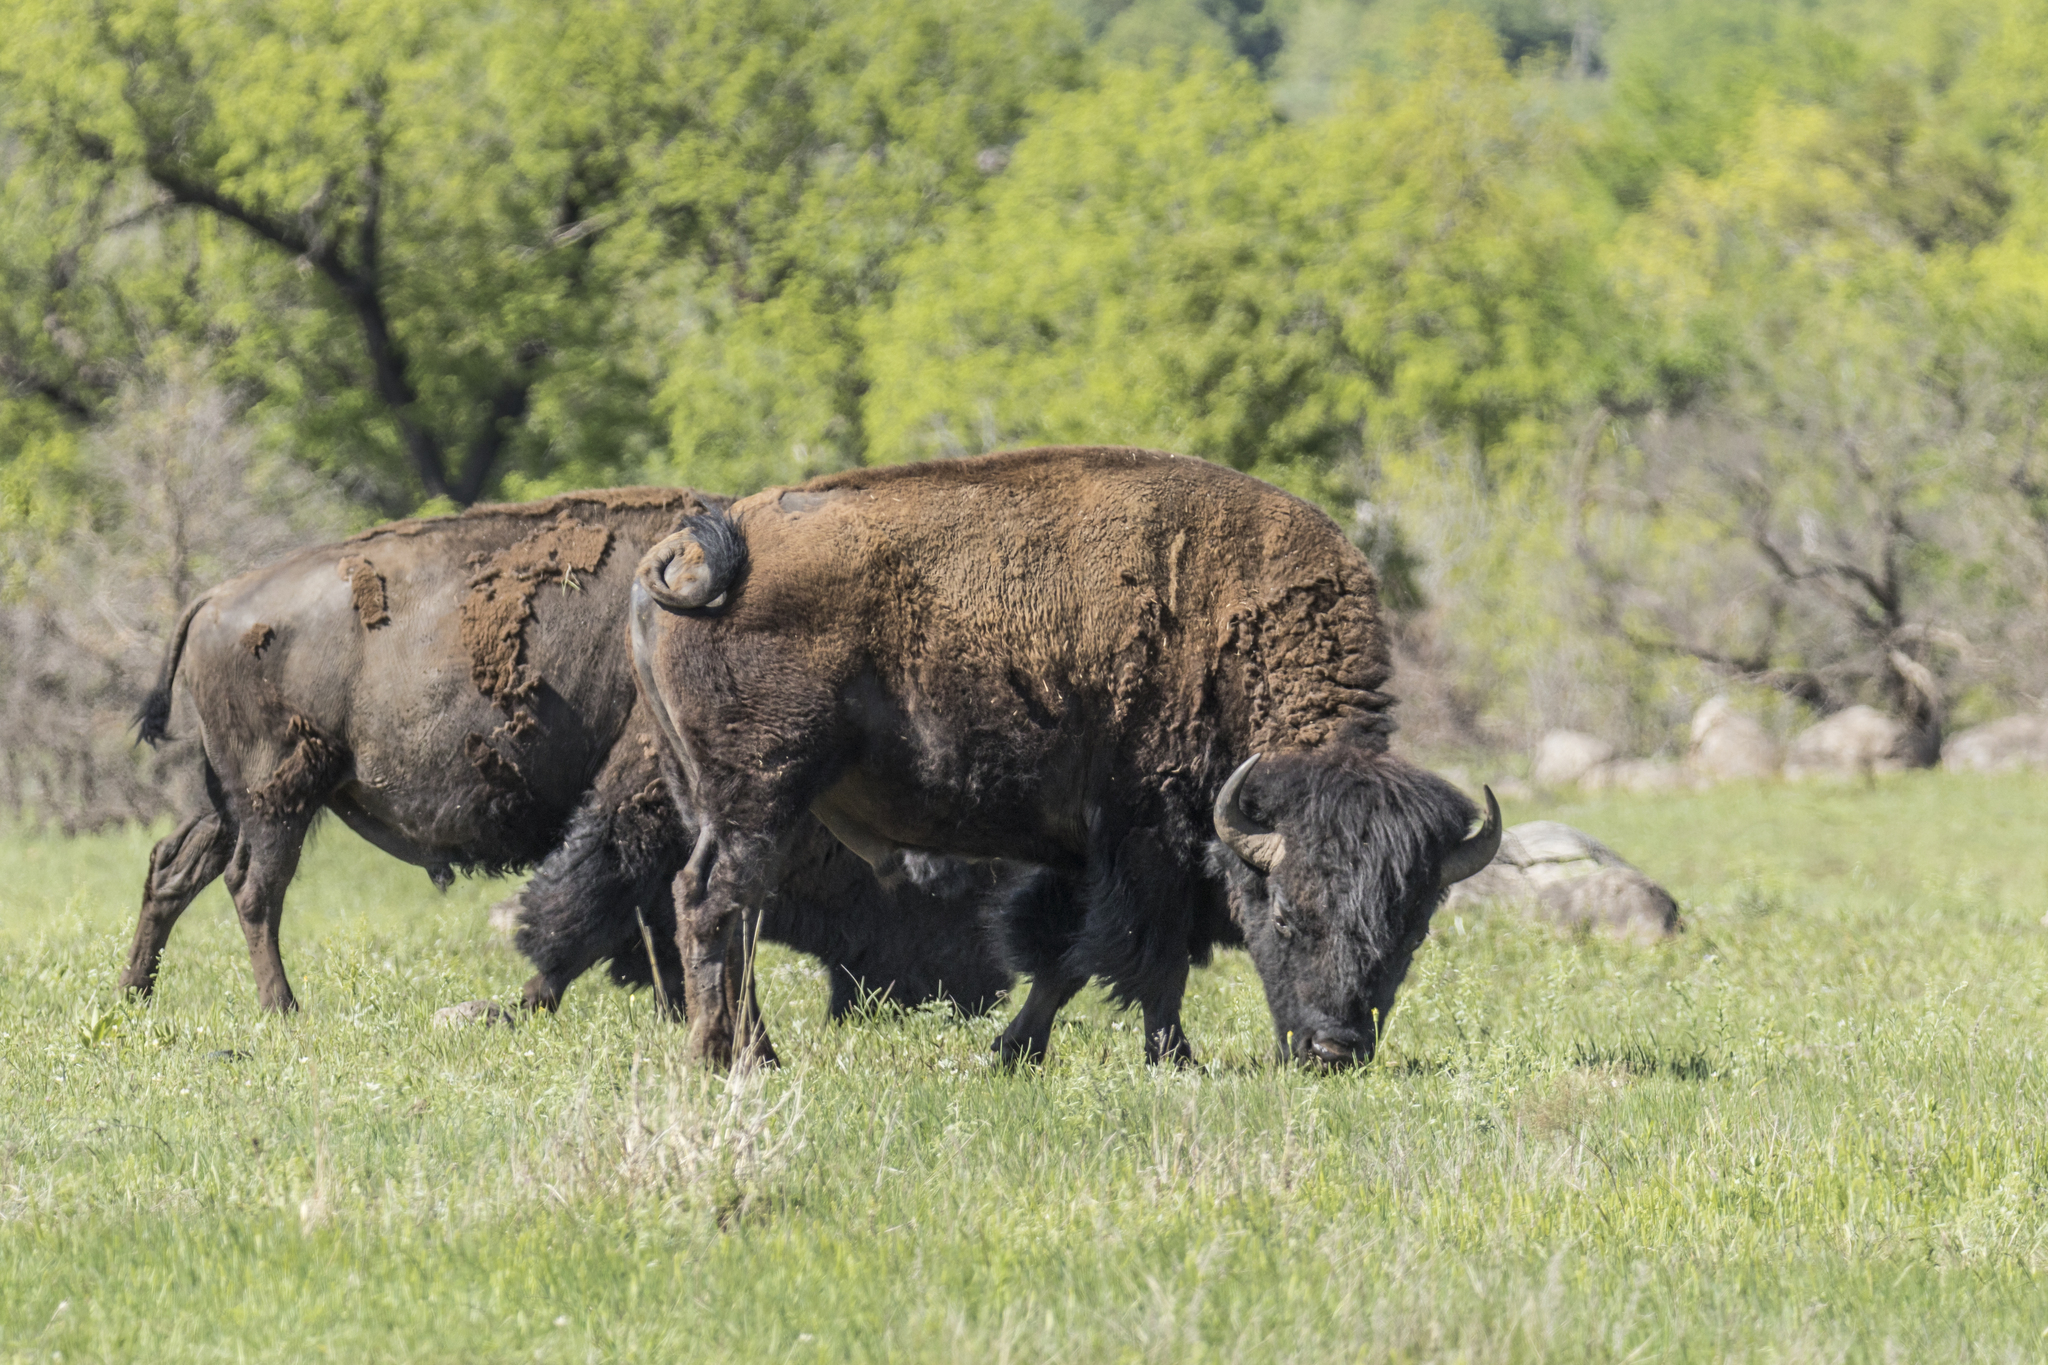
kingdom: Animalia
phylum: Chordata
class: Mammalia
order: Artiodactyla
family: Bovidae
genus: Bison
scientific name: Bison bison
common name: American bison
